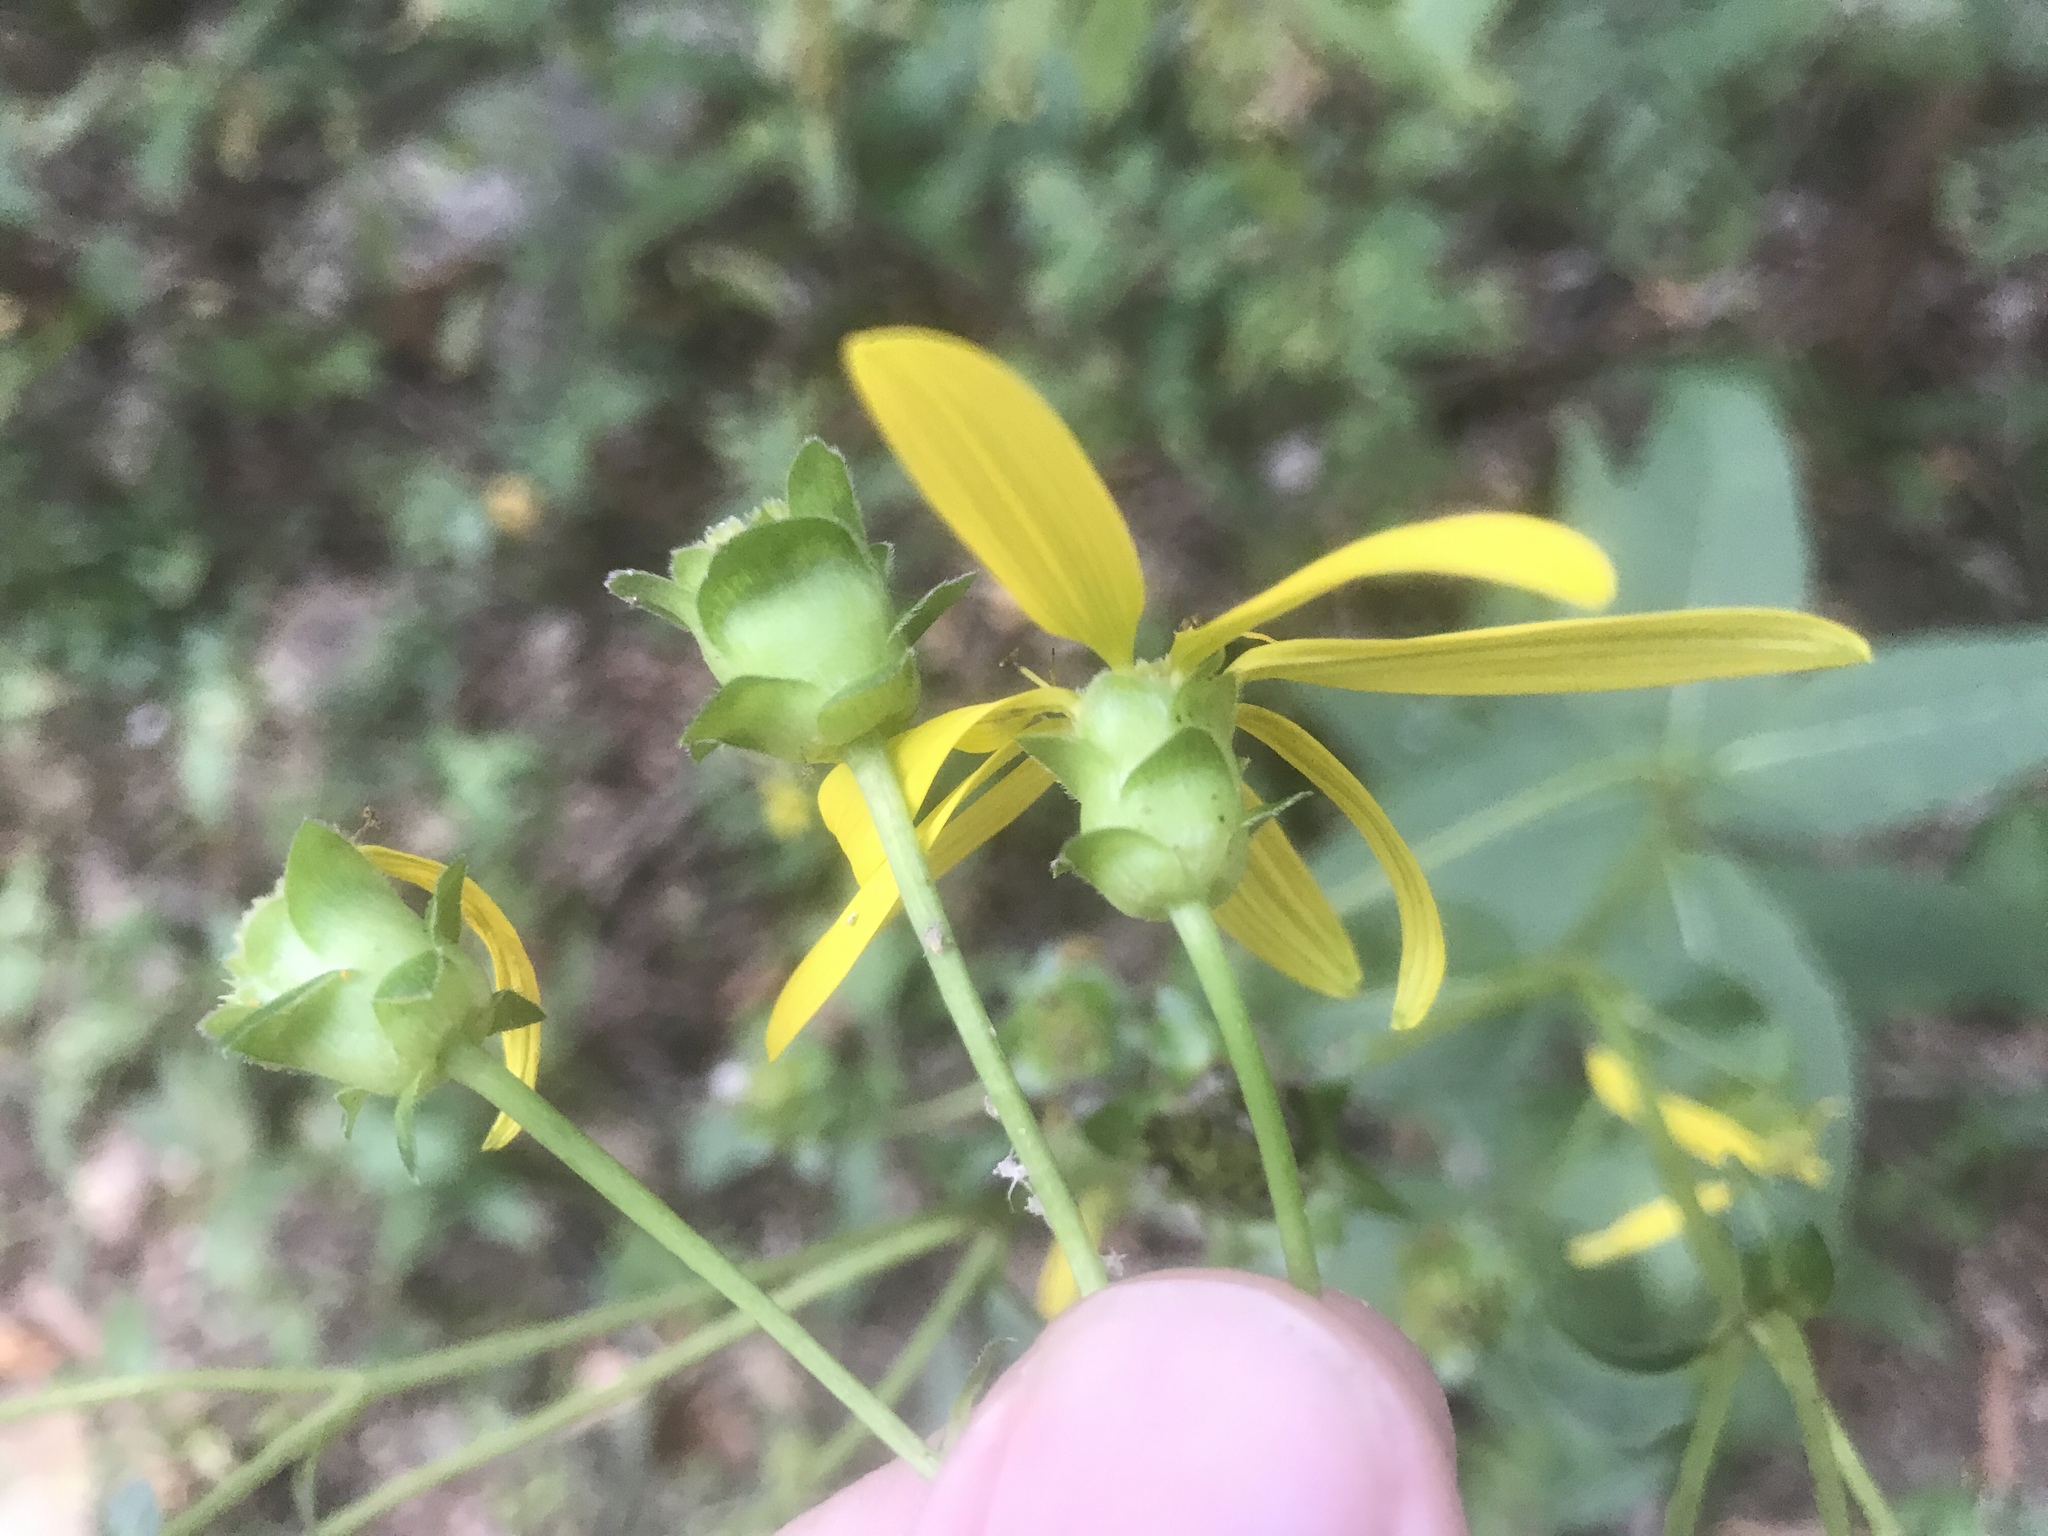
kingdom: Plantae
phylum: Tracheophyta
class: Magnoliopsida
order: Asterales
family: Asteraceae
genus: Silphium
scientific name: Silphium asteriscus
